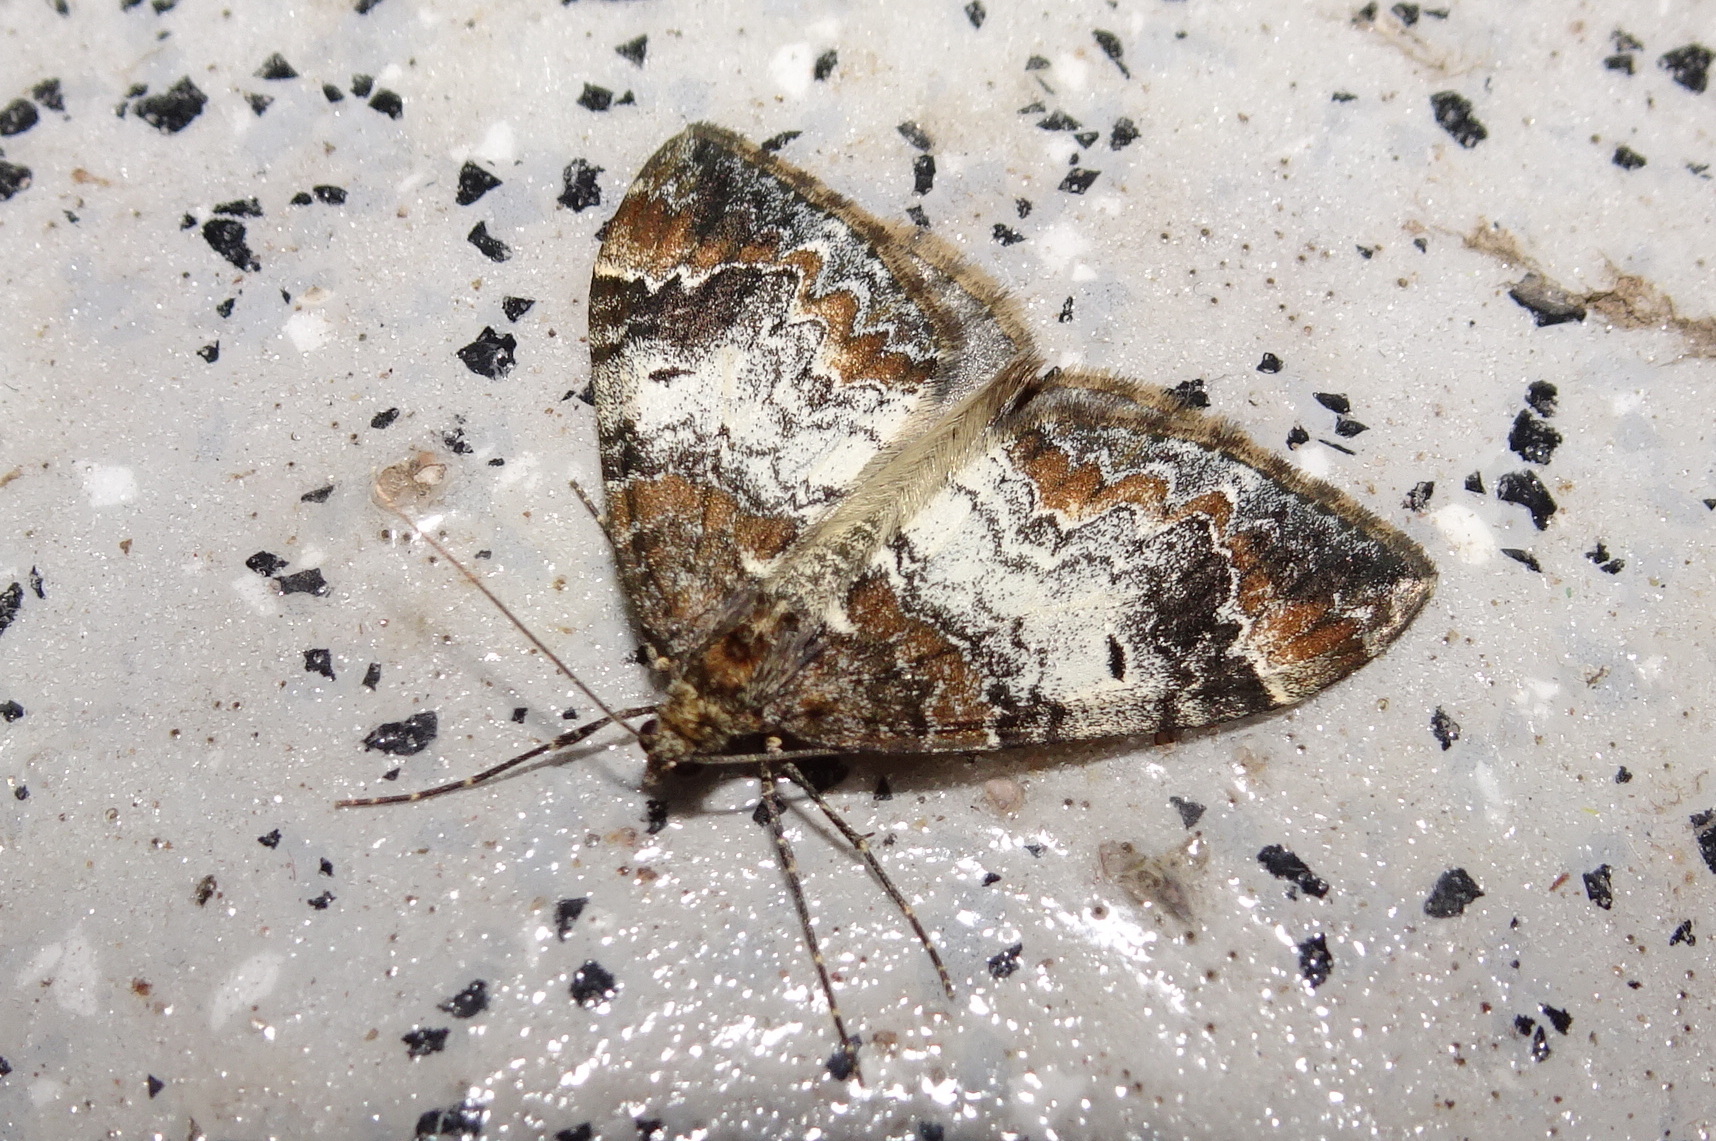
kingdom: Animalia
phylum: Arthropoda
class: Insecta
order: Lepidoptera
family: Geometridae
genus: Dysstroma
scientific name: Dysstroma truncata
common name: Common marbled carpet
